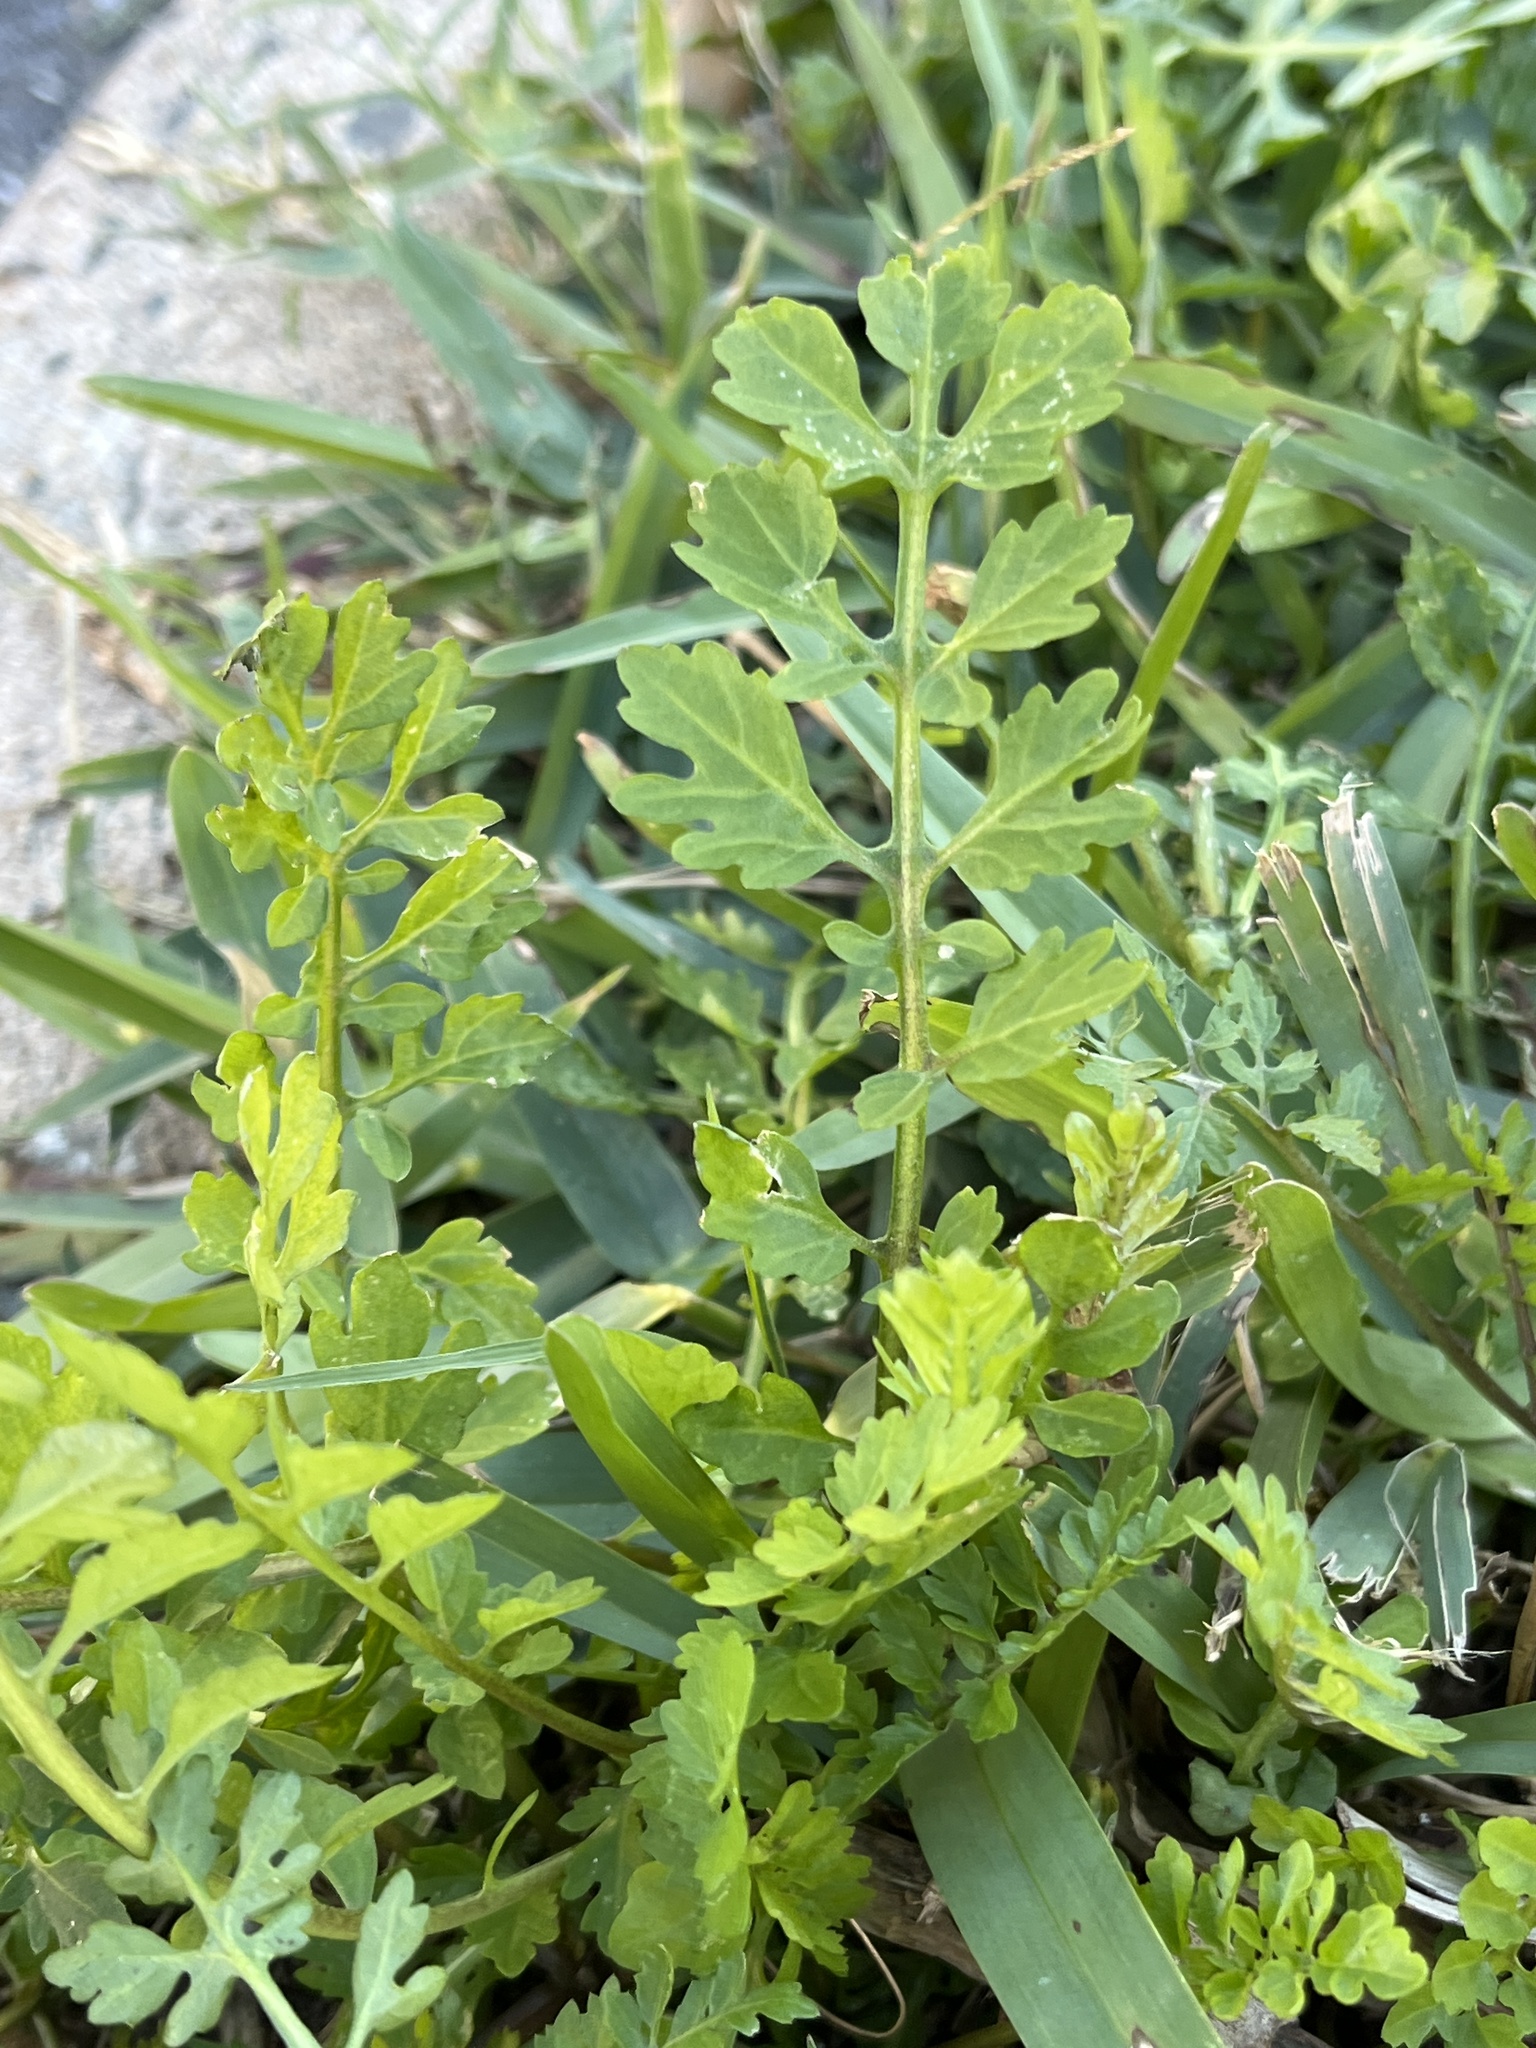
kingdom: Plantae
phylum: Tracheophyta
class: Magnoliopsida
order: Brassicales
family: Brassicaceae
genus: Rorippa
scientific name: Rorippa sylvestris
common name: Creeping yellowcress
